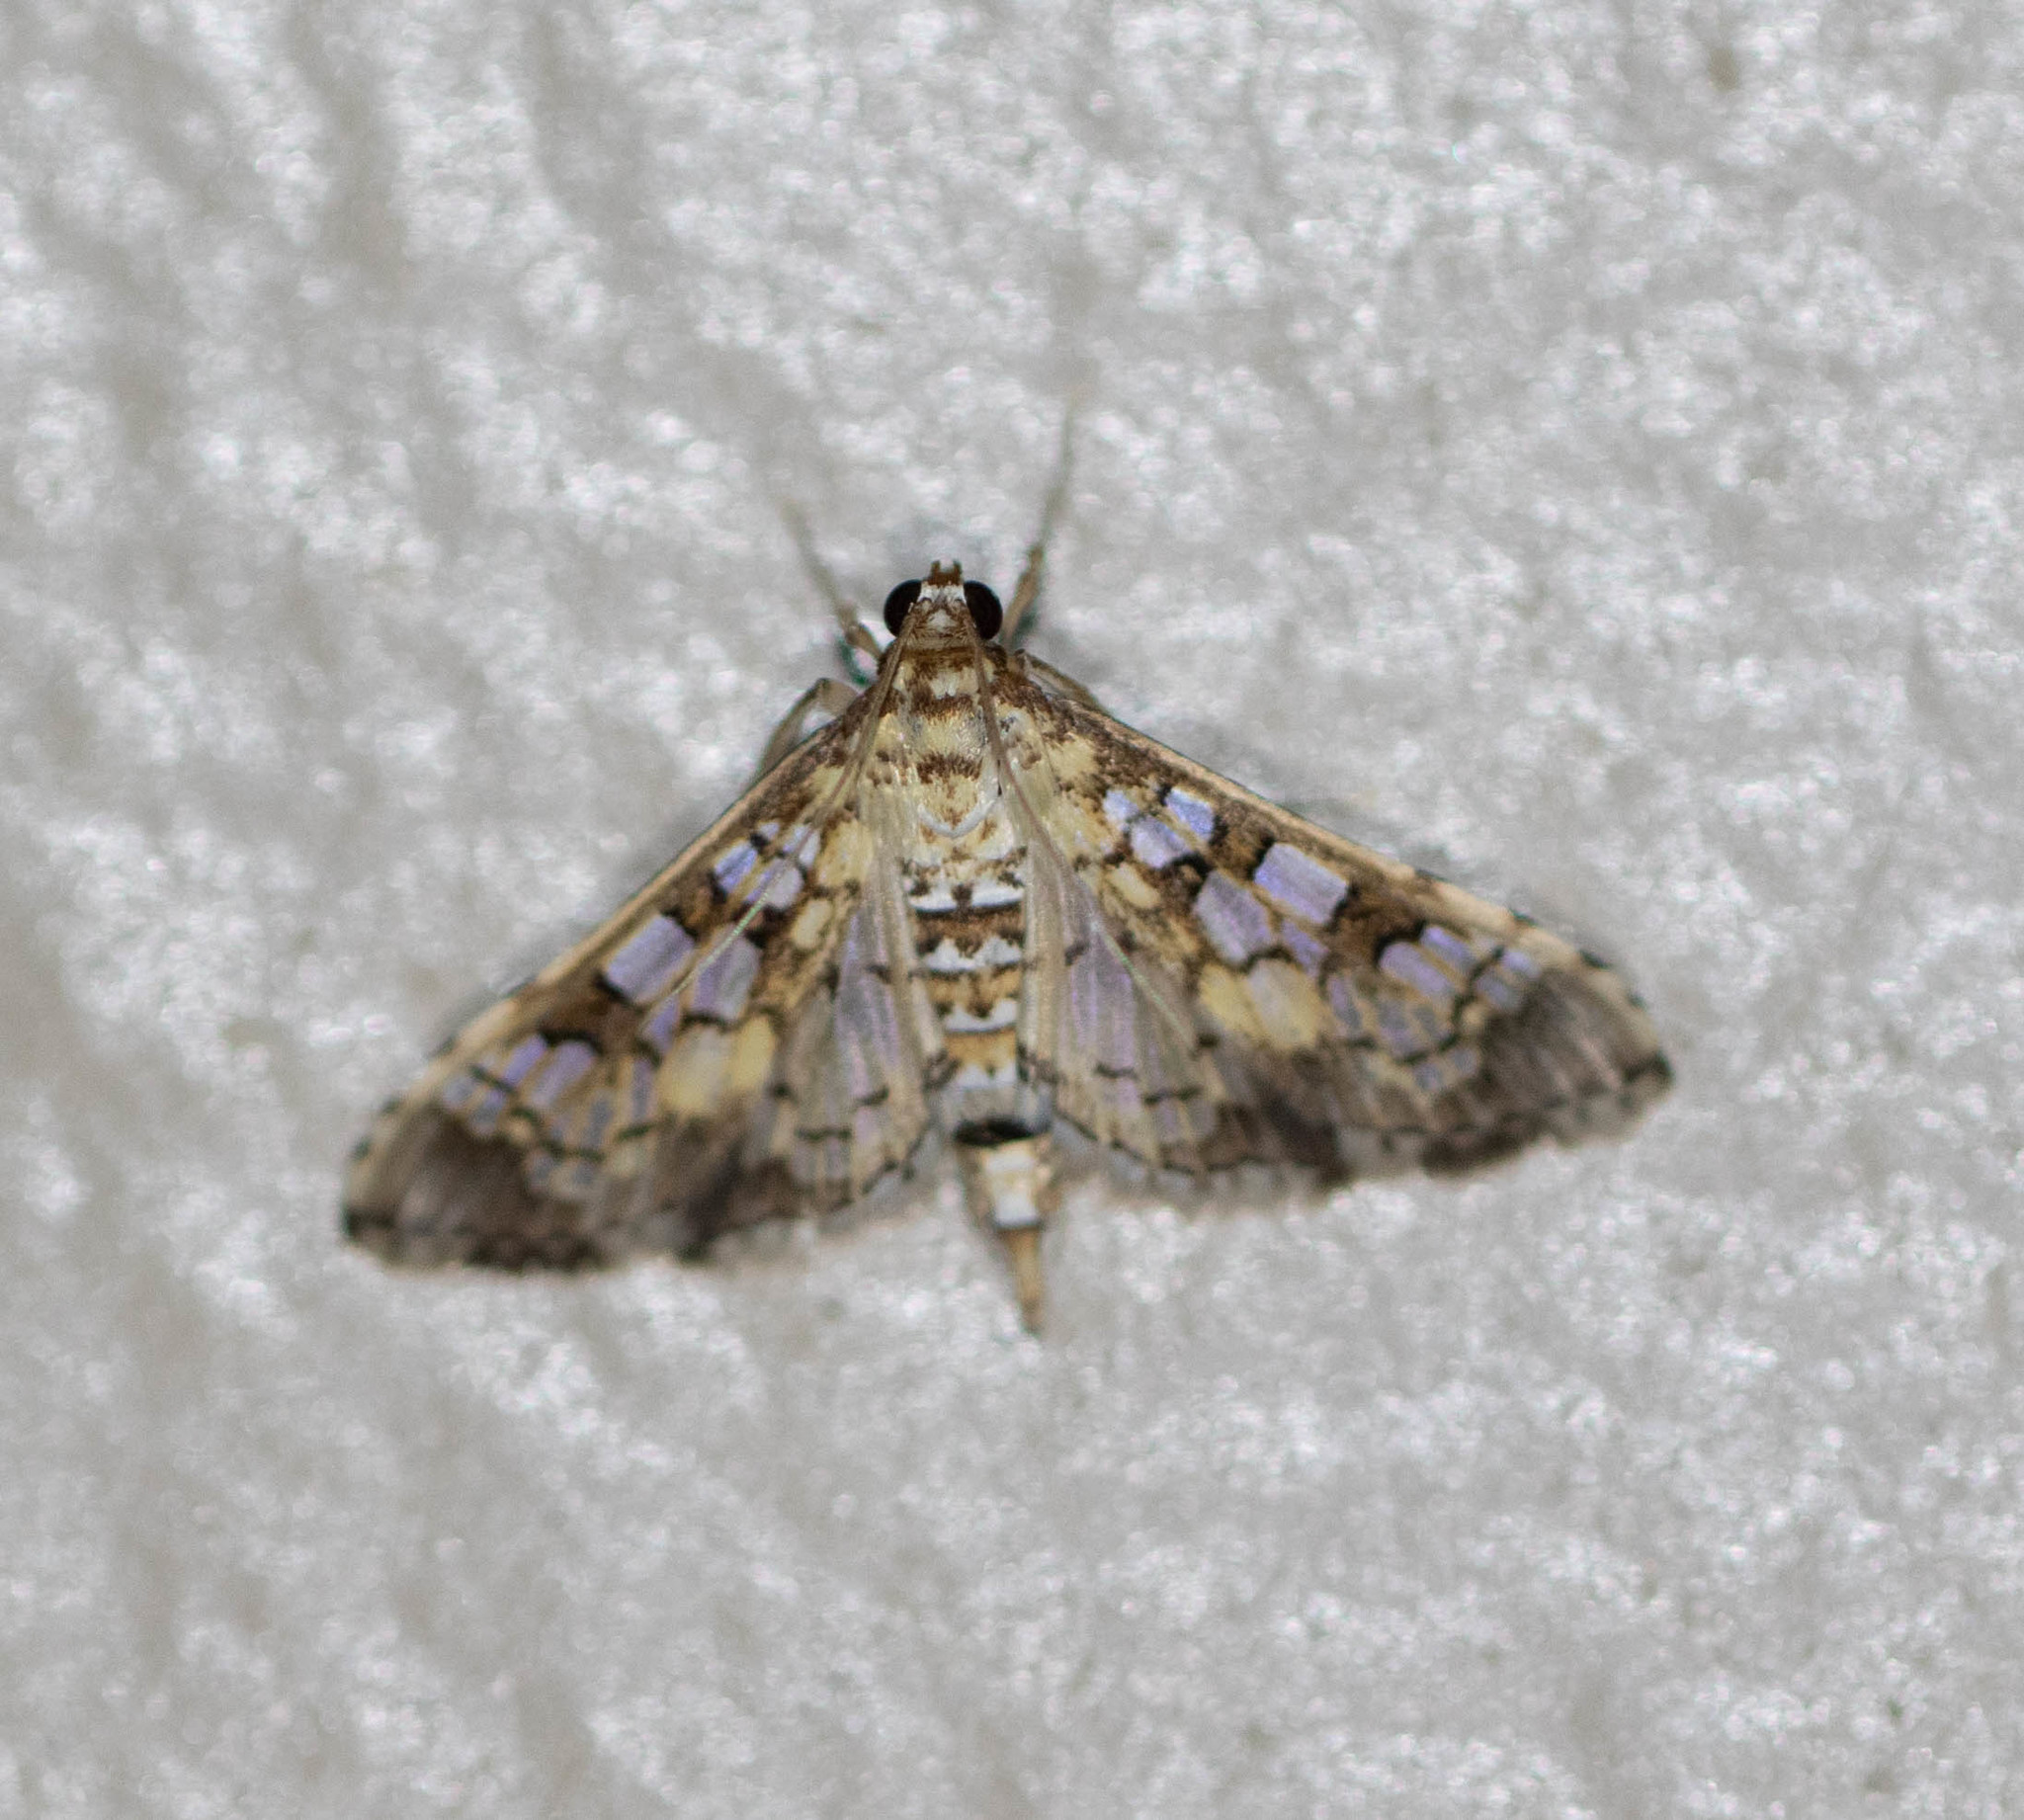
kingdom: Animalia
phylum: Arthropoda
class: Insecta
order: Lepidoptera
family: Crambidae
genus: Samea
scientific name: Samea ecclesialis
